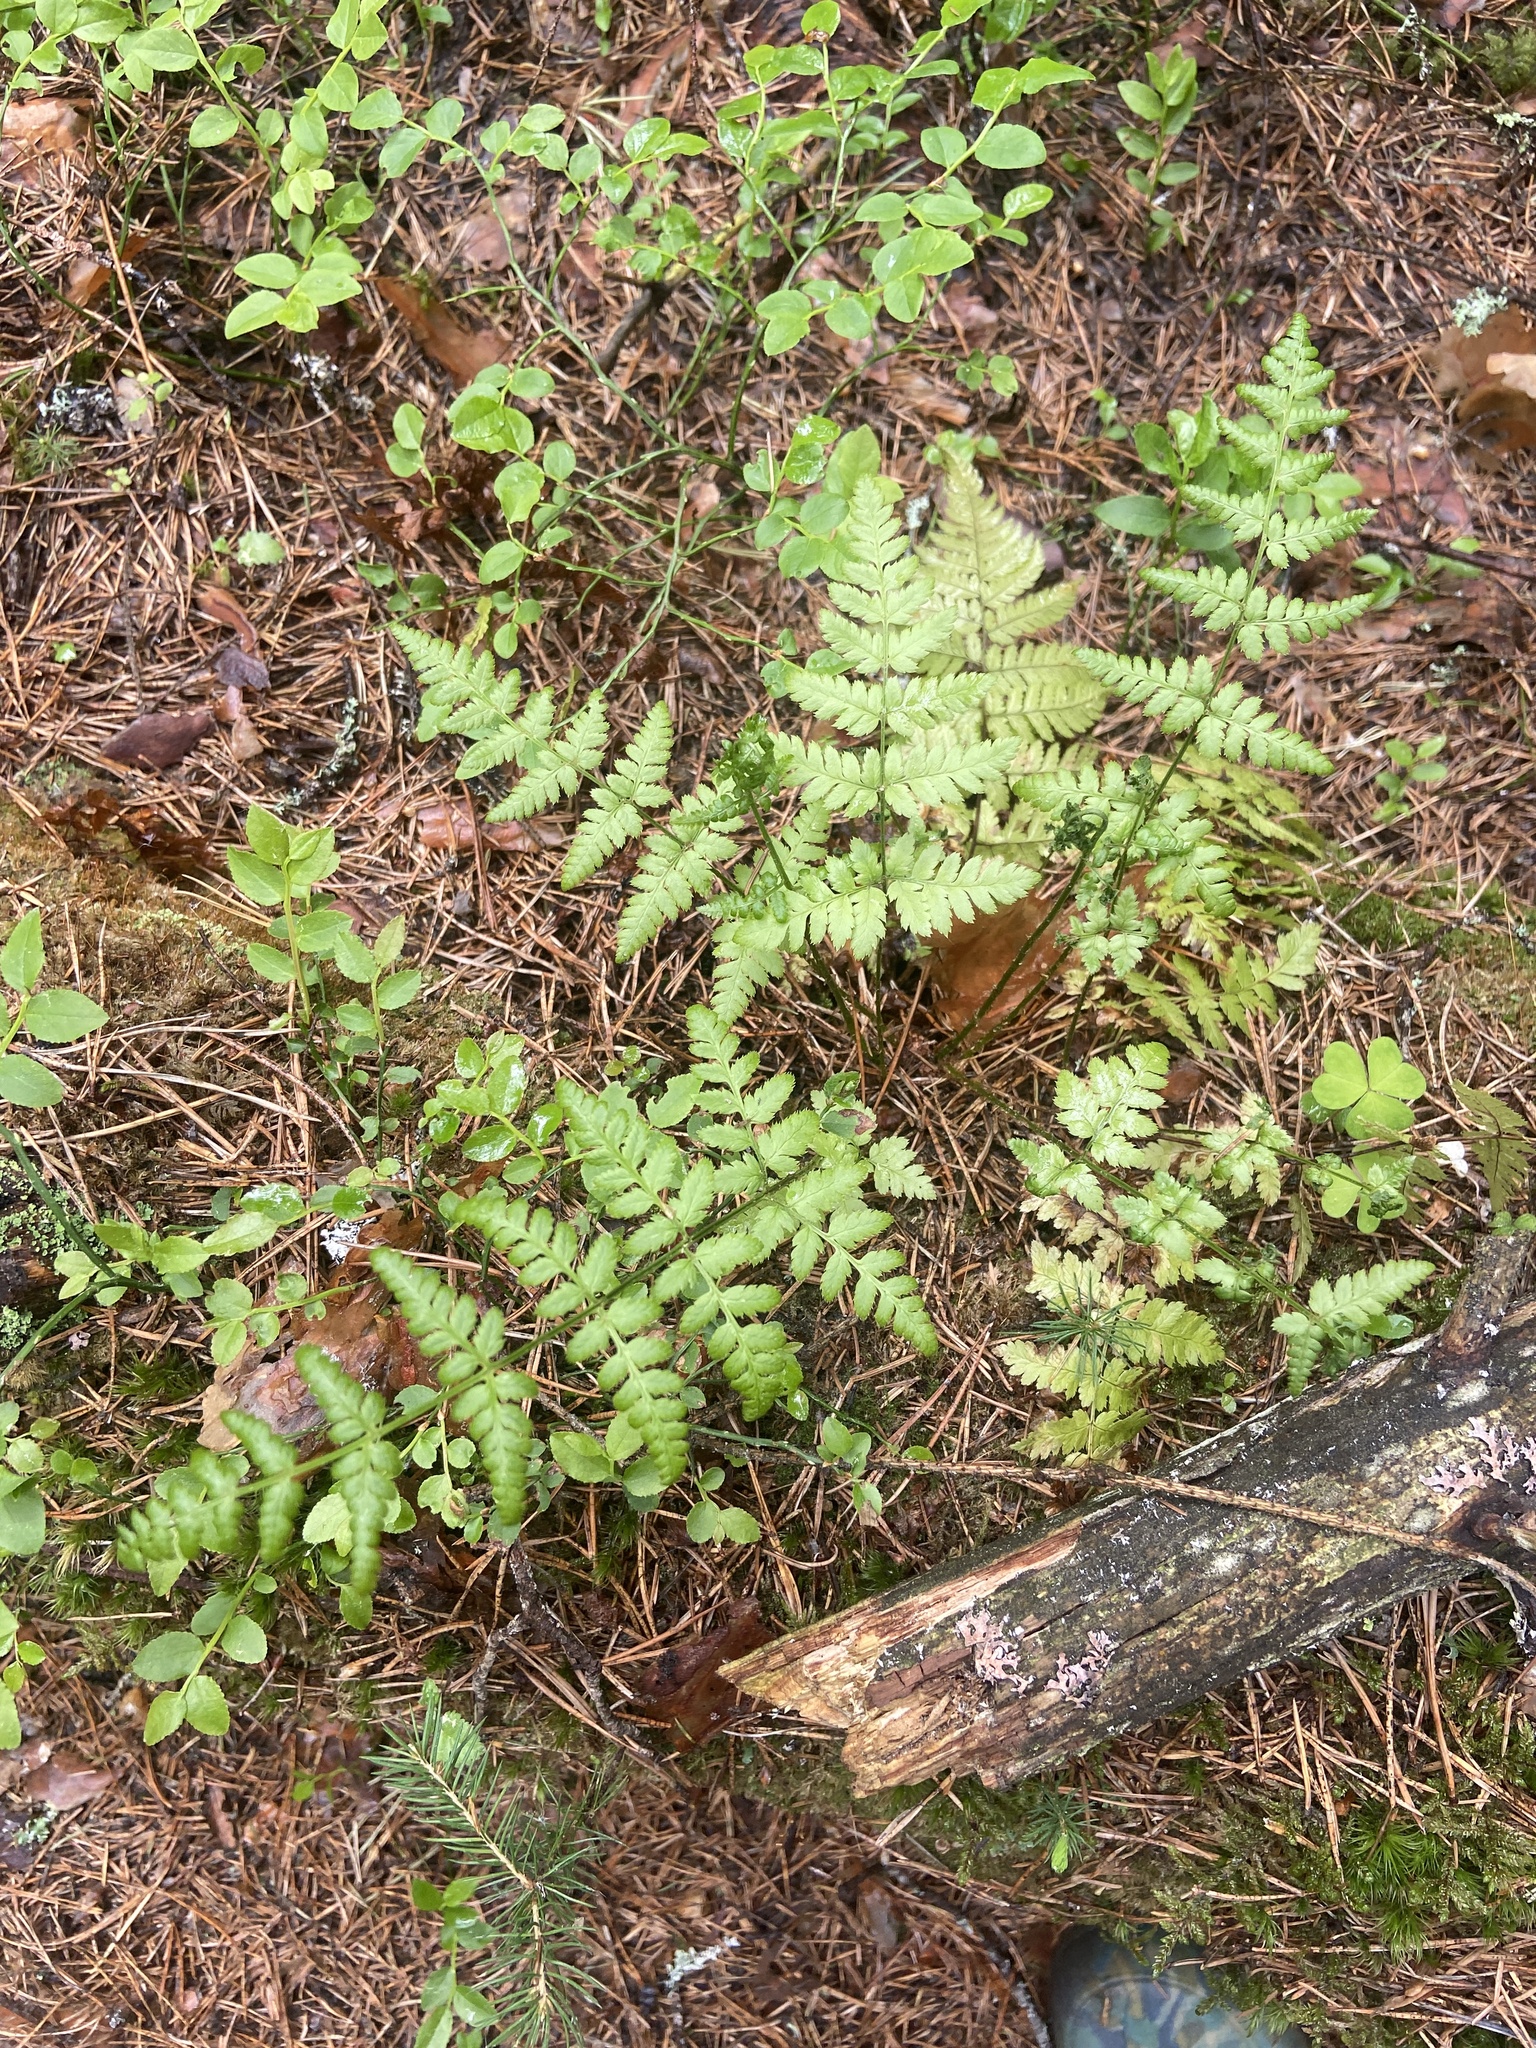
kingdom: Plantae
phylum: Tracheophyta
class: Polypodiopsida
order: Polypodiales
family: Dryopteridaceae
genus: Dryopteris
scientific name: Dryopteris carthusiana
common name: Narrow buckler-fern
